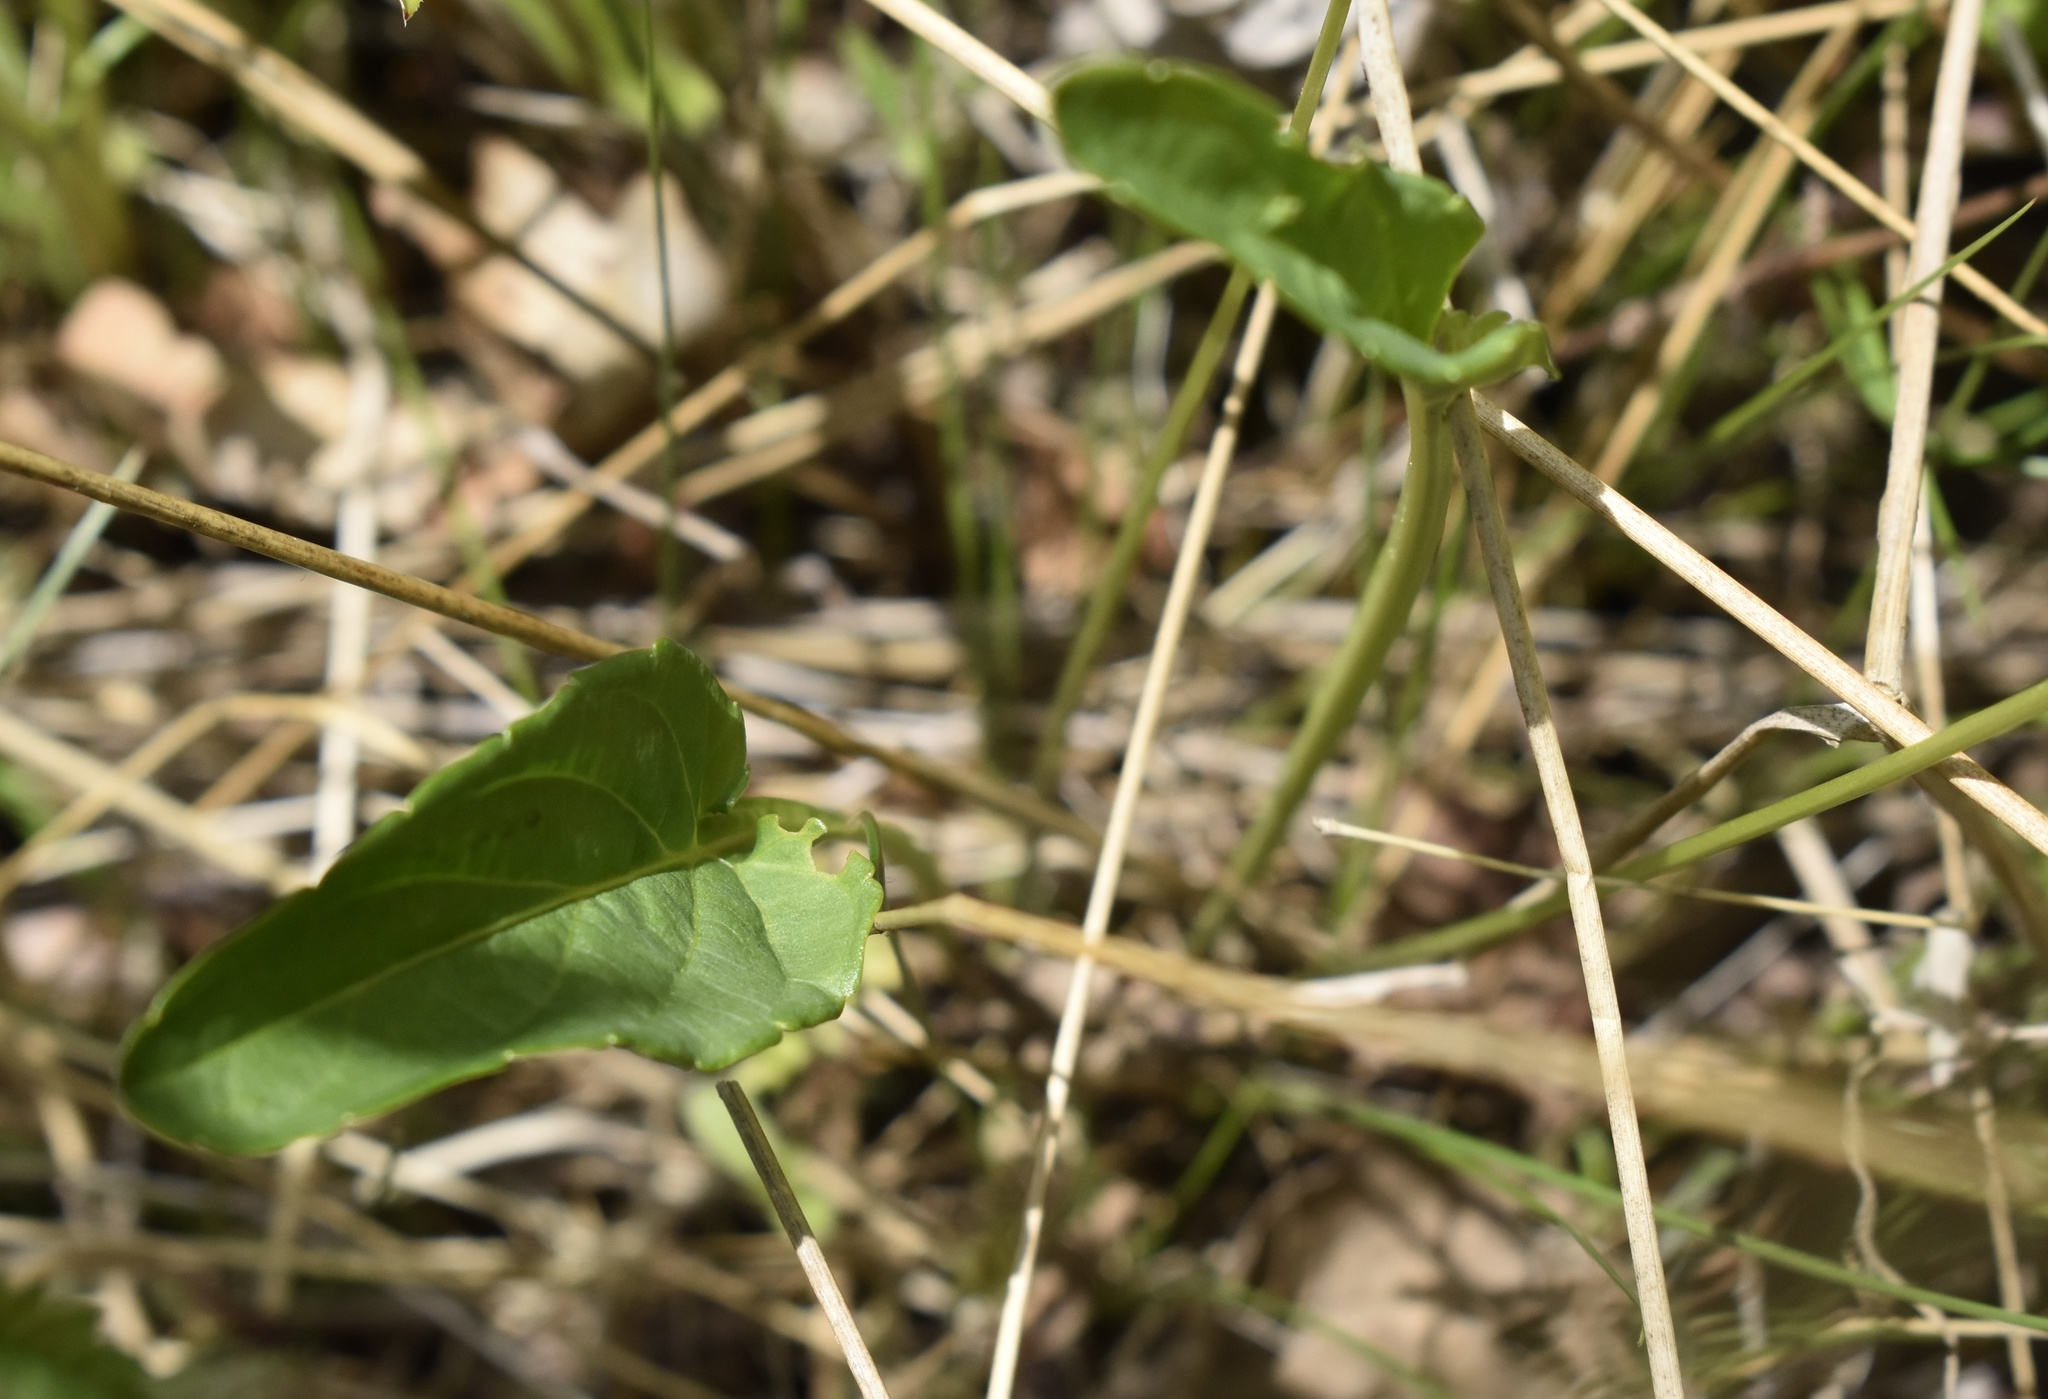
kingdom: Plantae
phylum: Tracheophyta
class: Magnoliopsida
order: Malpighiales
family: Violaceae
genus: Viola
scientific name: Viola patrinii
